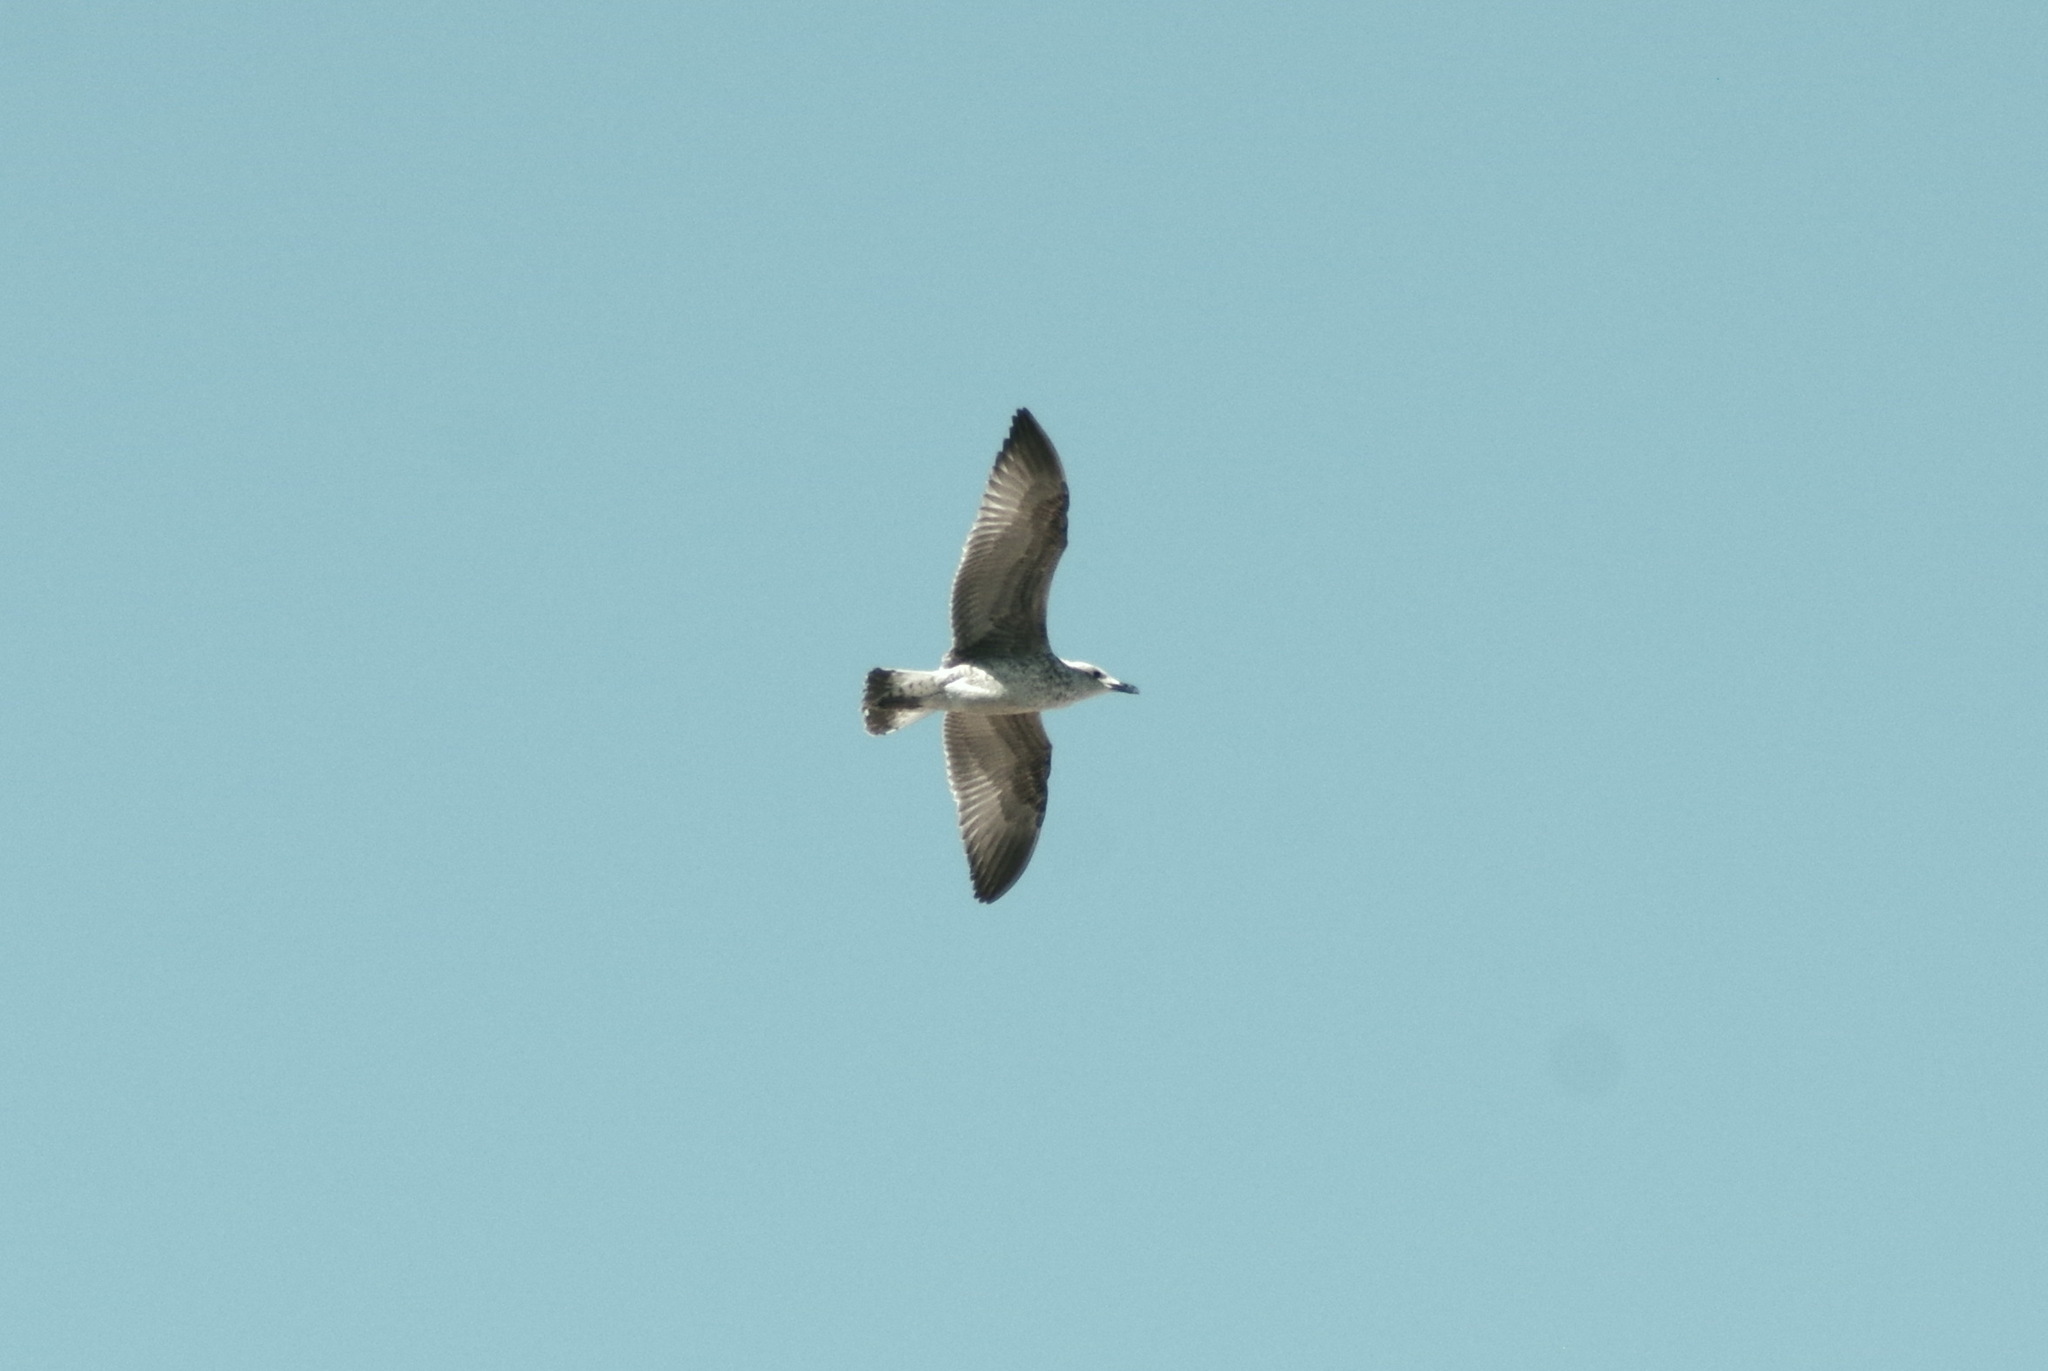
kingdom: Animalia
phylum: Chordata
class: Aves
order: Charadriiformes
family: Laridae
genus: Larus
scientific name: Larus michahellis
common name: Yellow-legged gull
